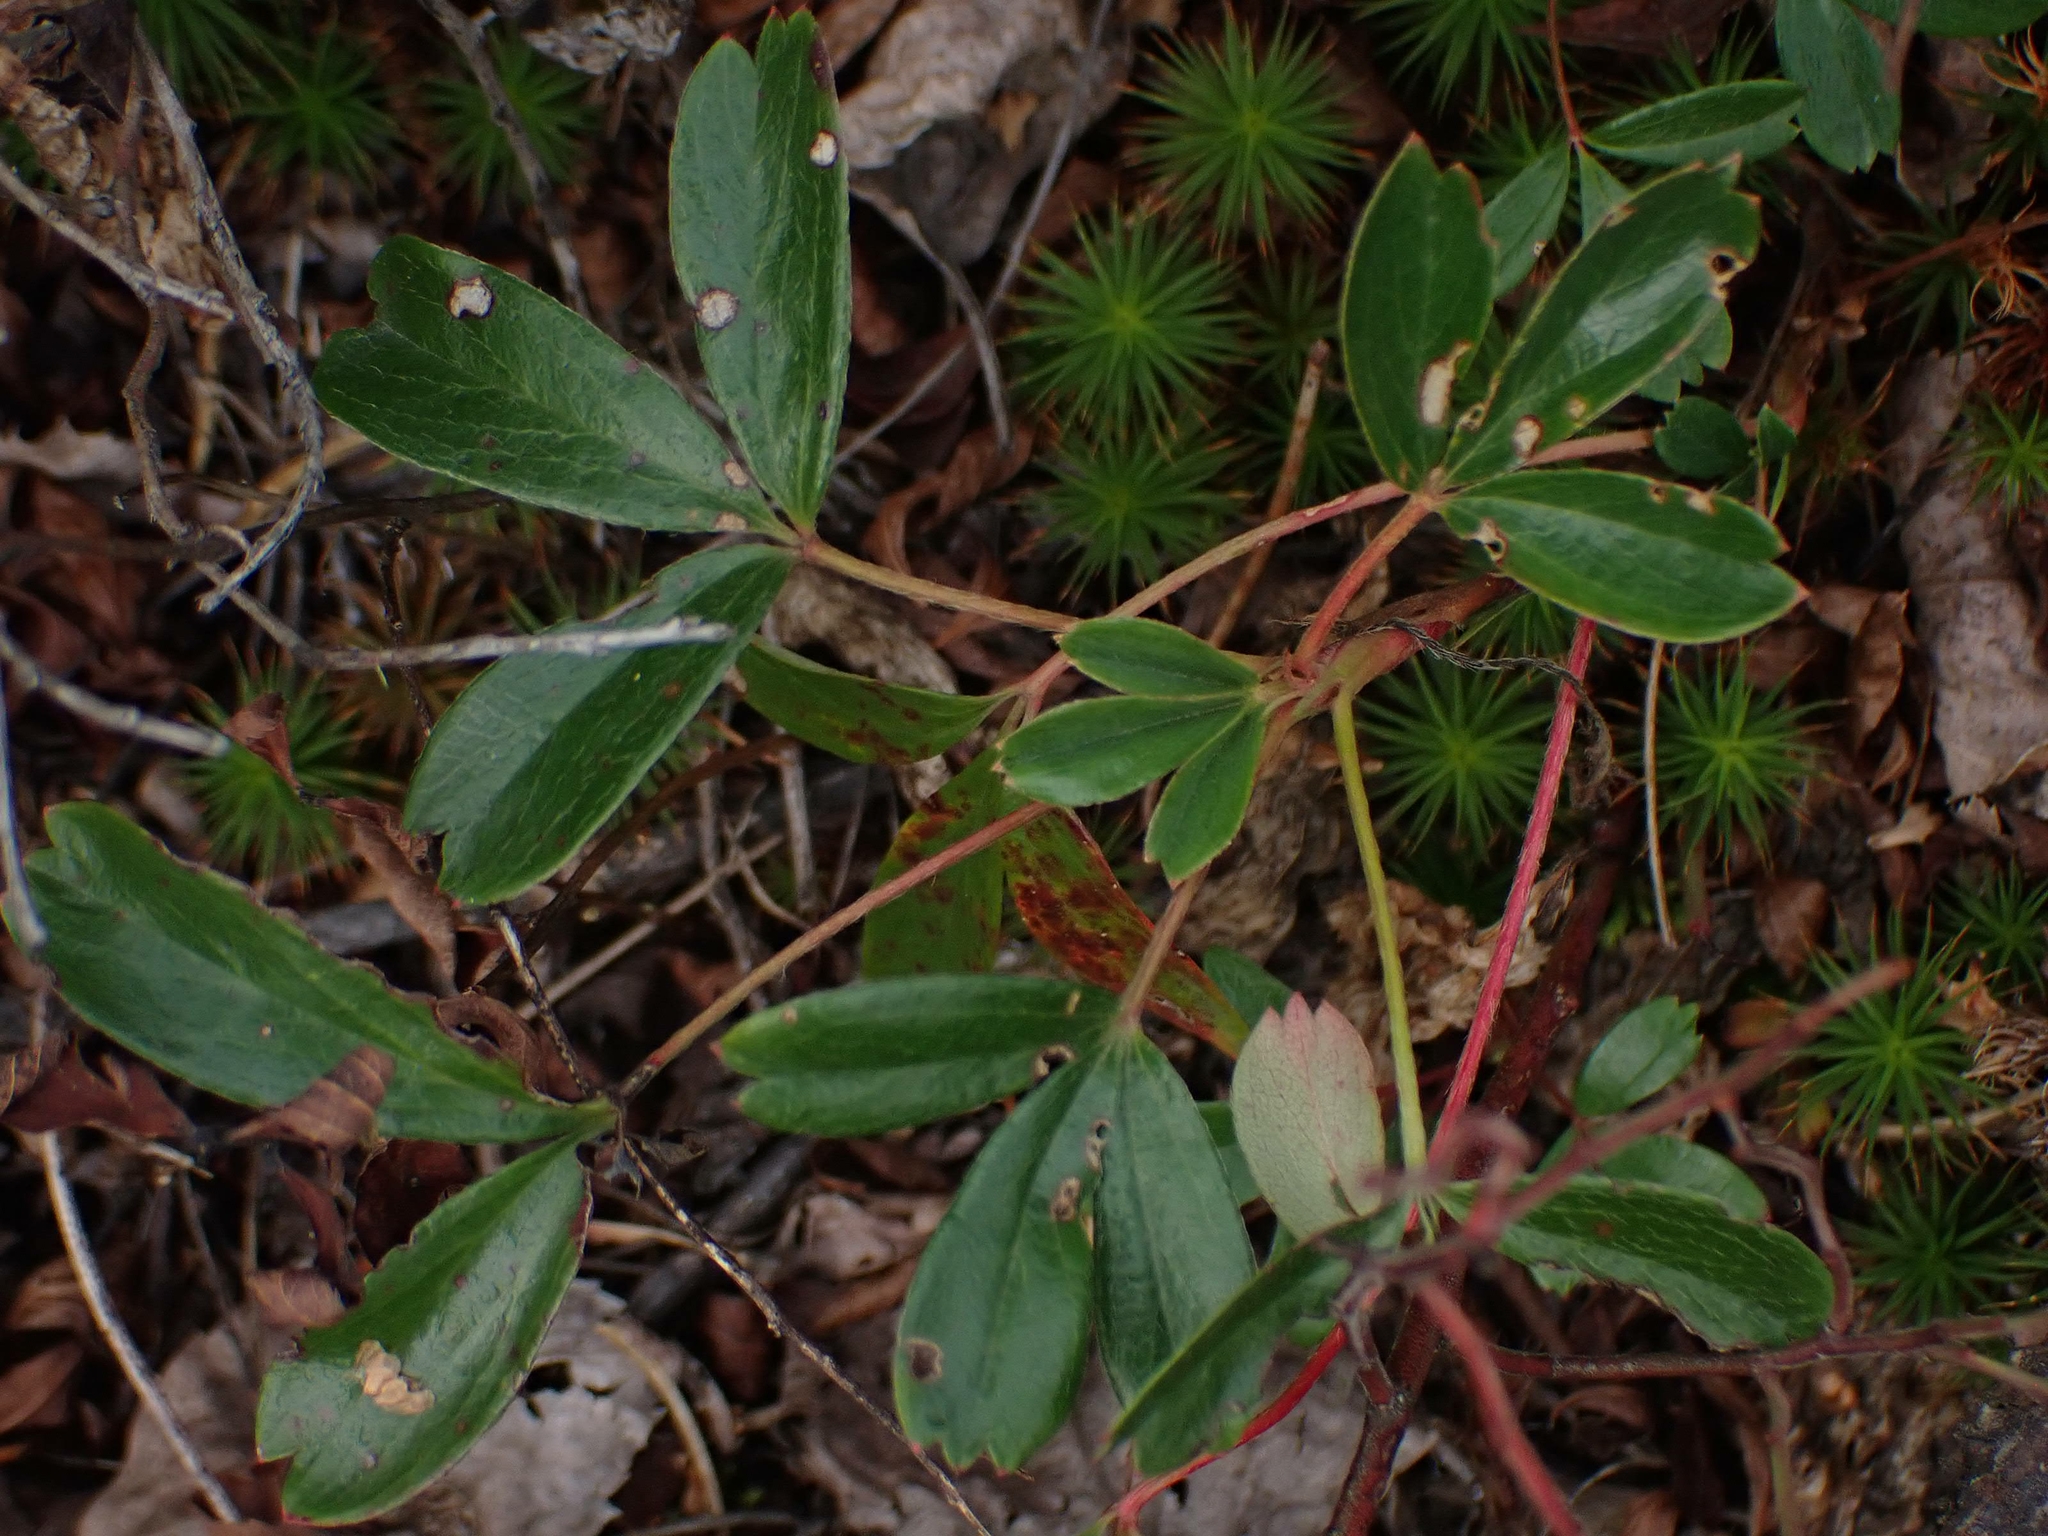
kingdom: Plantae
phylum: Tracheophyta
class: Magnoliopsida
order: Rosales
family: Rosaceae
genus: Sibbaldia
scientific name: Sibbaldia tridentata
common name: Three-toothed cinquefoil
